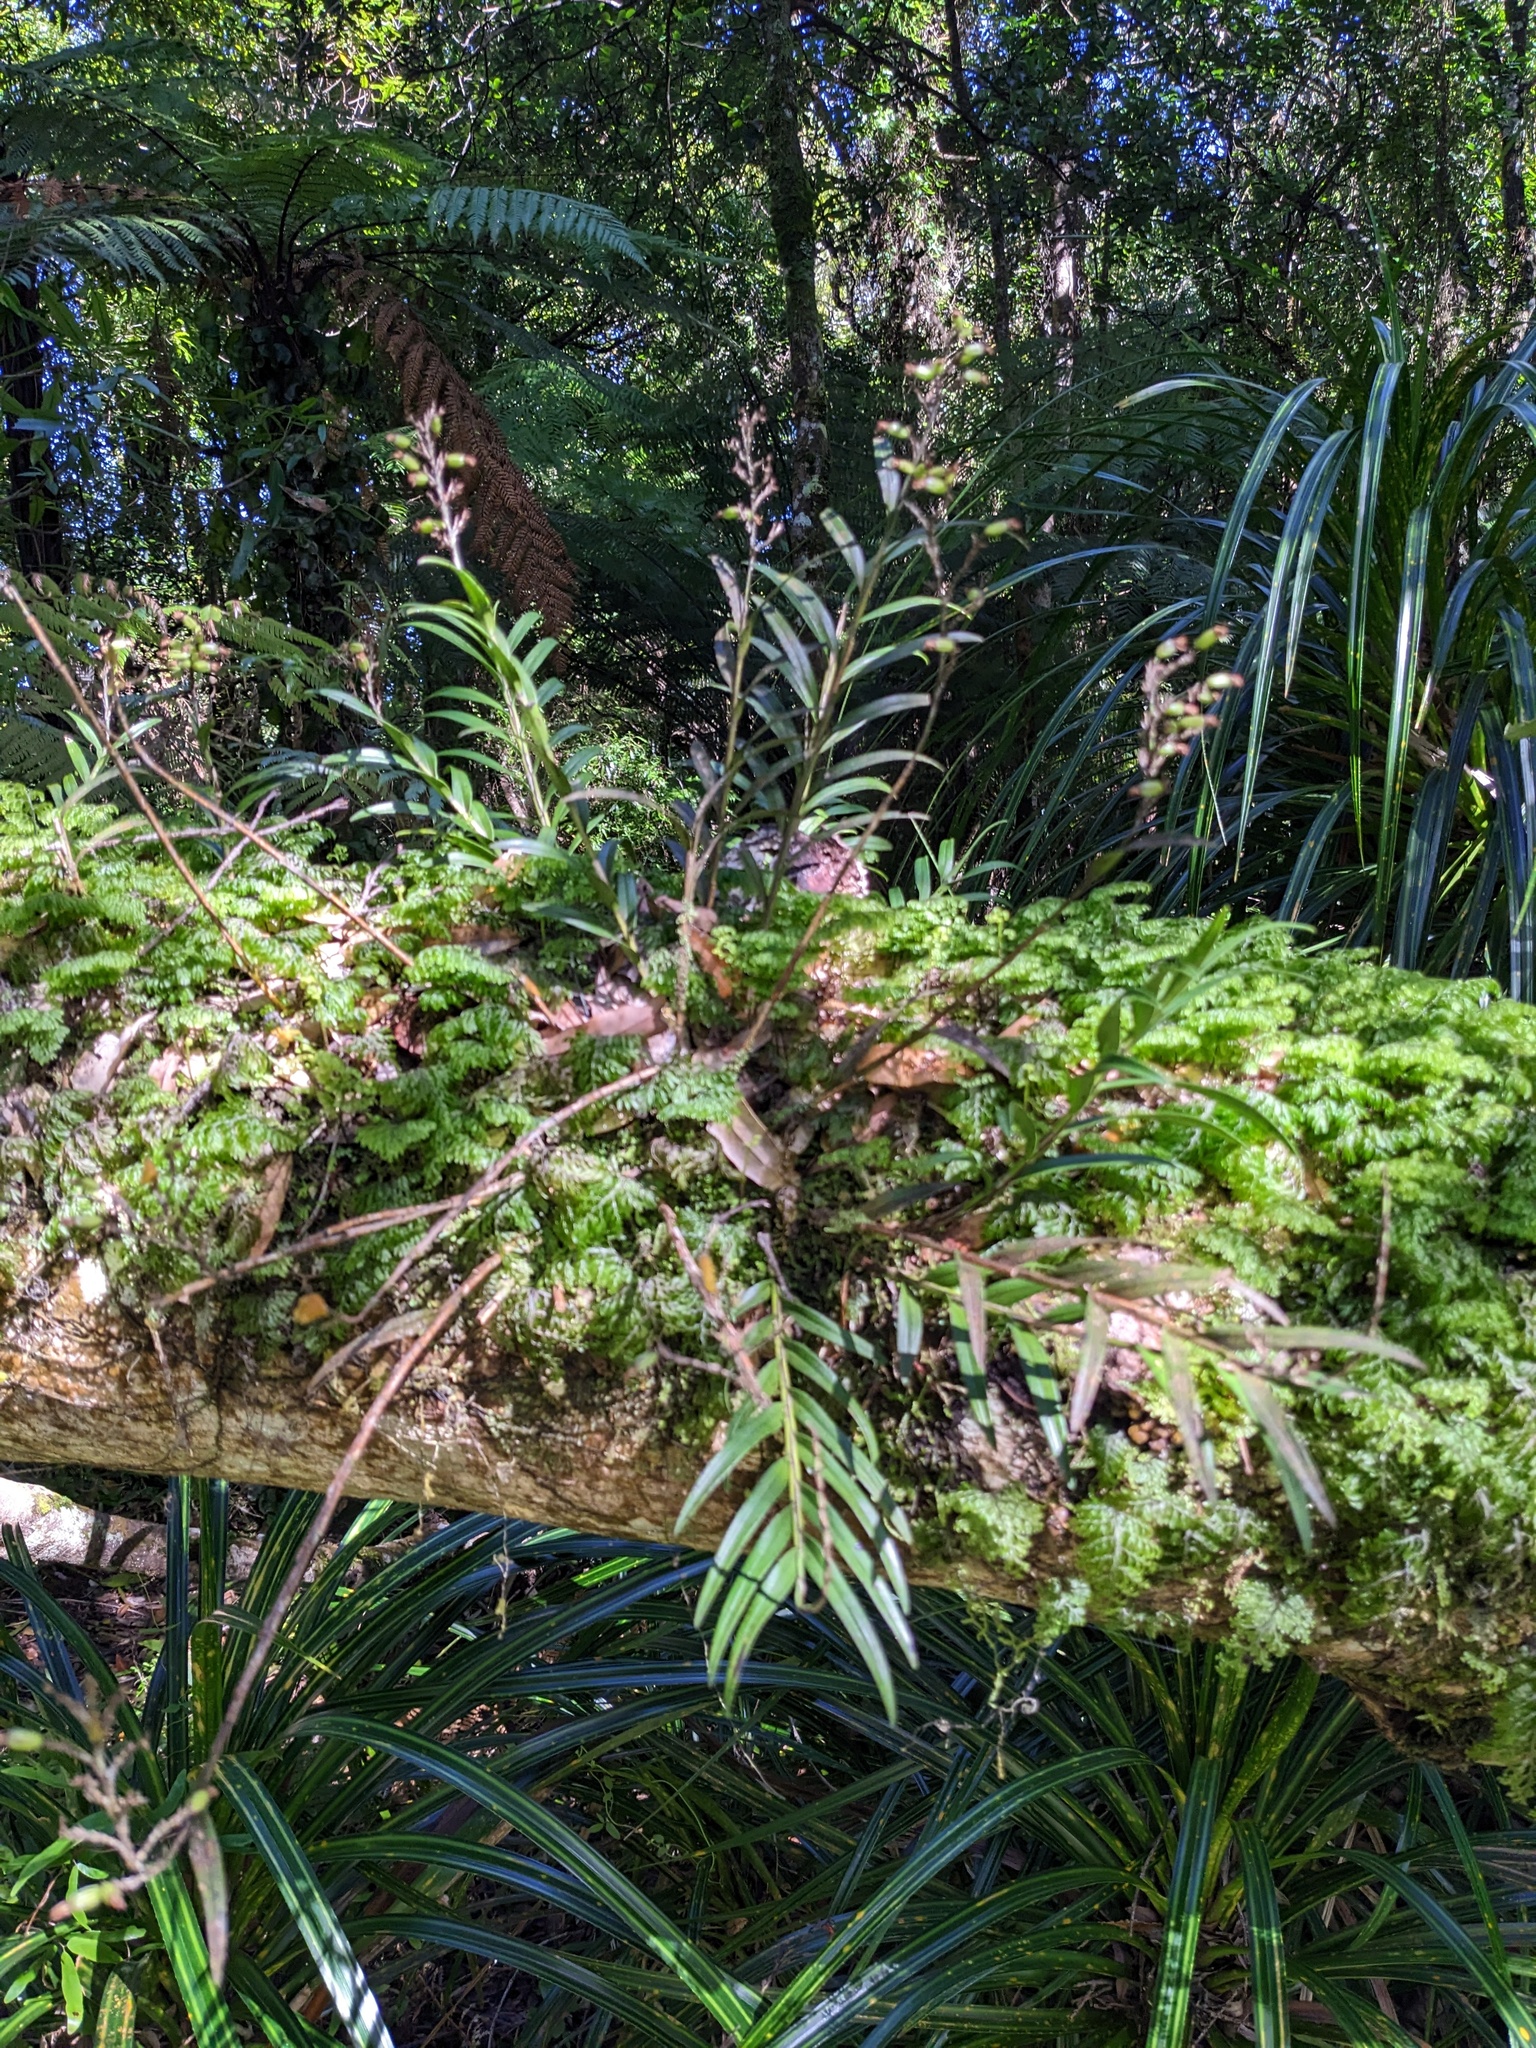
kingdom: Plantae
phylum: Tracheophyta
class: Liliopsida
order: Asparagales
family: Orchidaceae
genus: Earina
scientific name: Earina autumnalis
